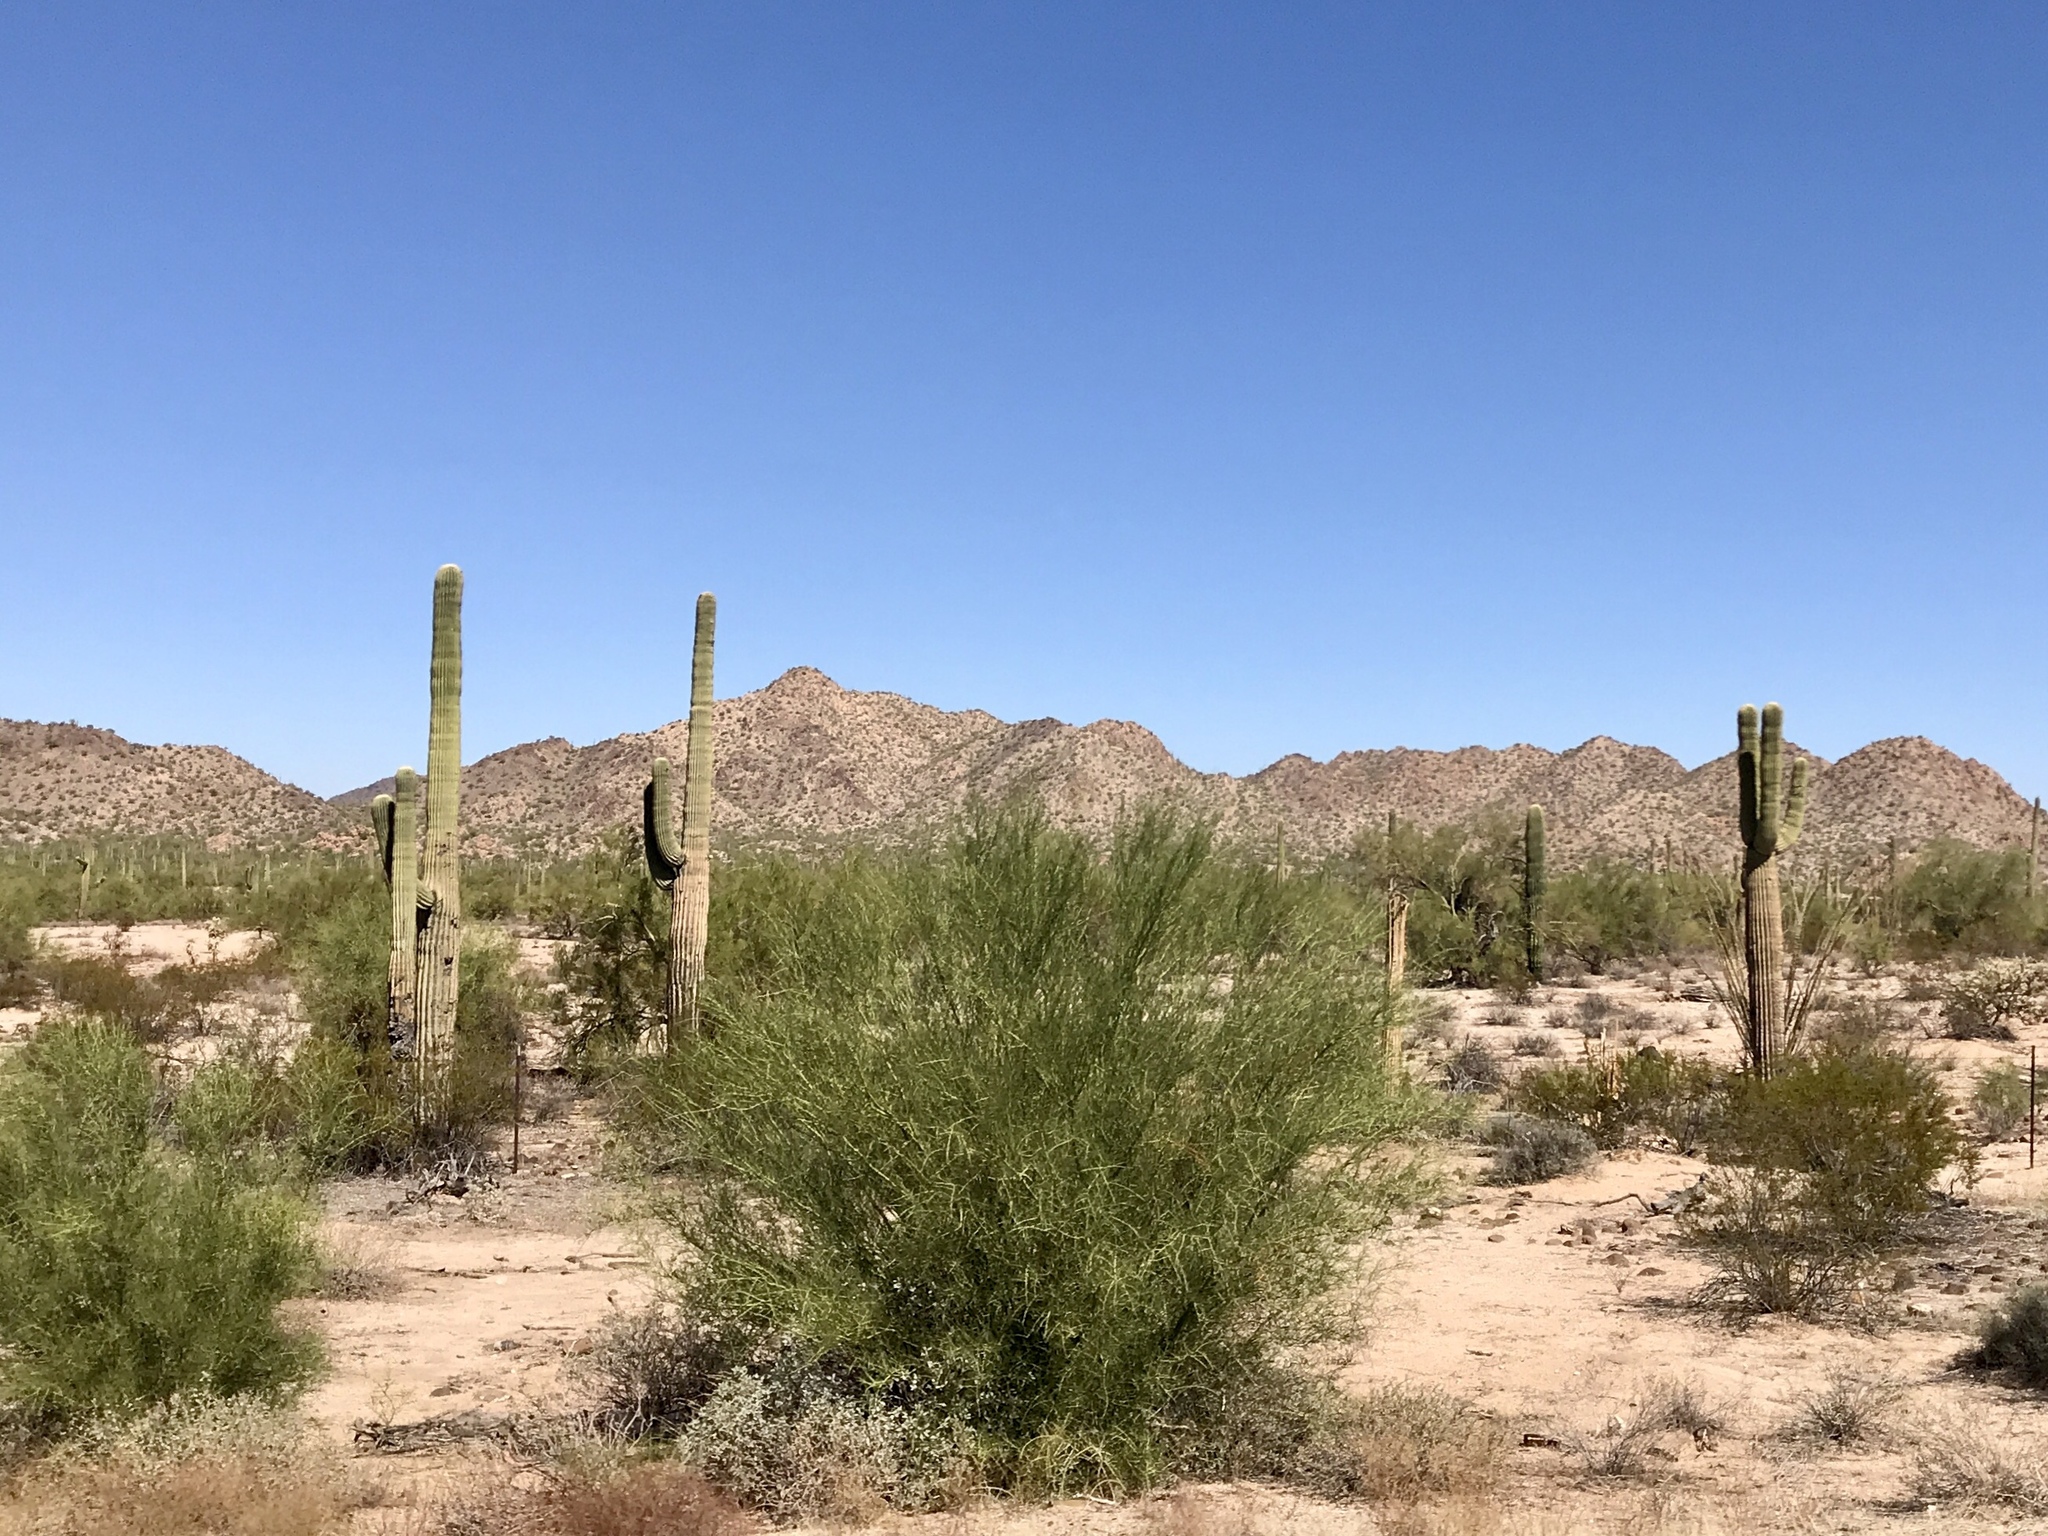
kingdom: Plantae
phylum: Tracheophyta
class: Magnoliopsida
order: Caryophyllales
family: Cactaceae
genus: Carnegiea
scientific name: Carnegiea gigantea
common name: Saguaro
